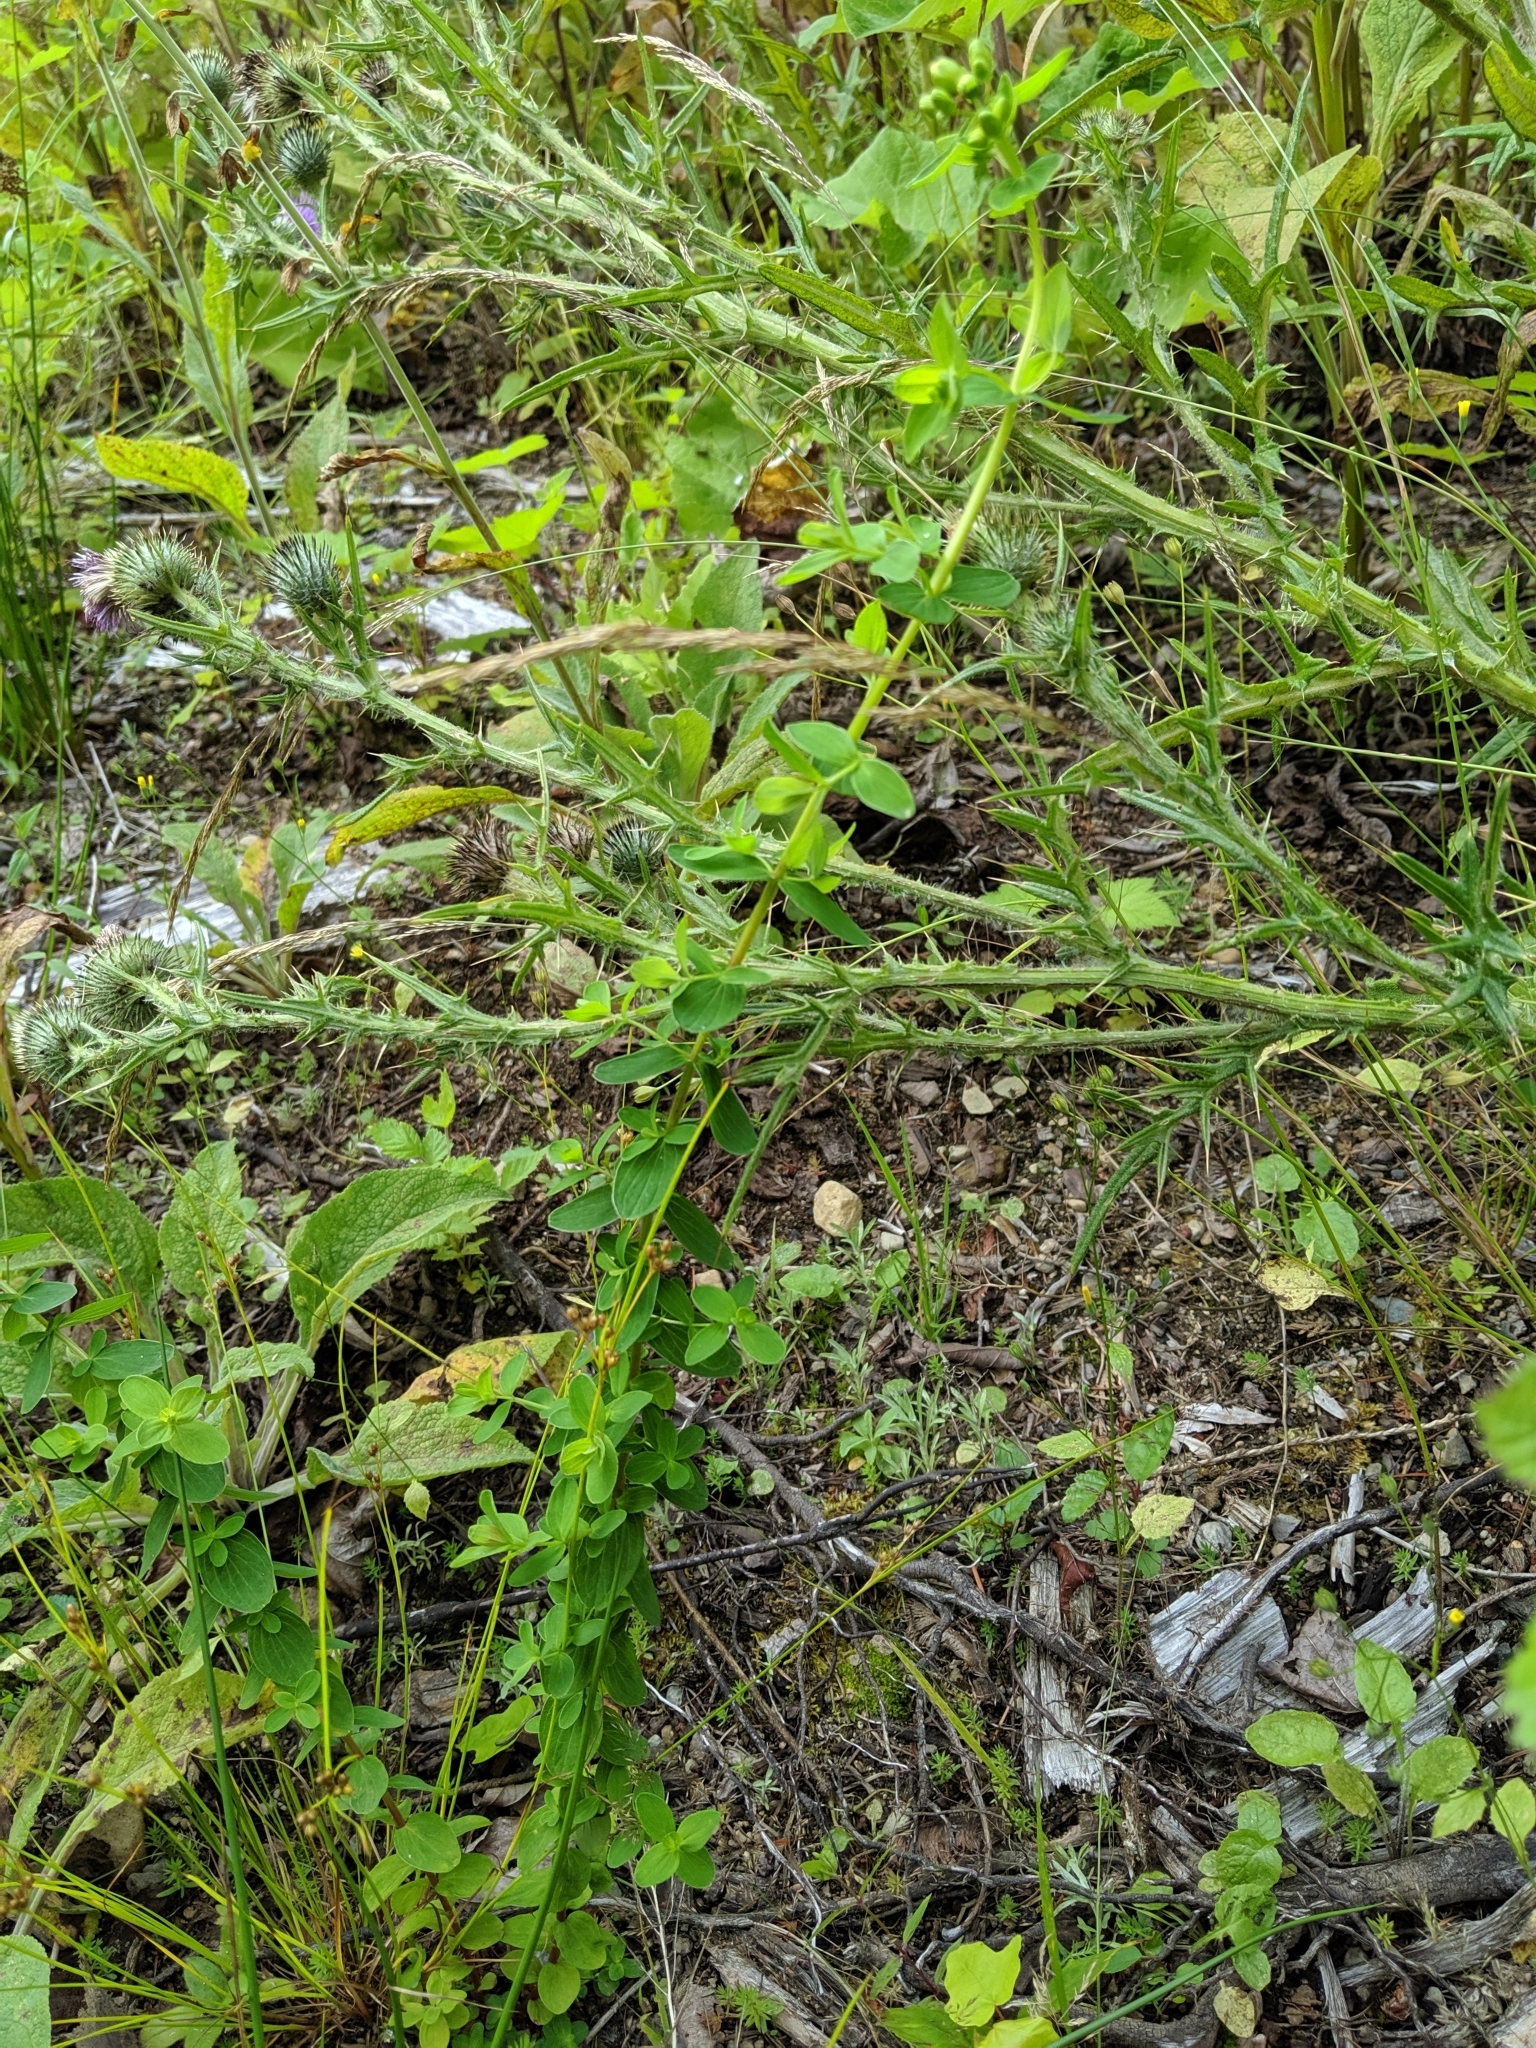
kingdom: Plantae
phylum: Tracheophyta
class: Magnoliopsida
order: Malpighiales
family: Hypericaceae
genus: Hypericum
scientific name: Hypericum perforatum
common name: Common st. johnswort
